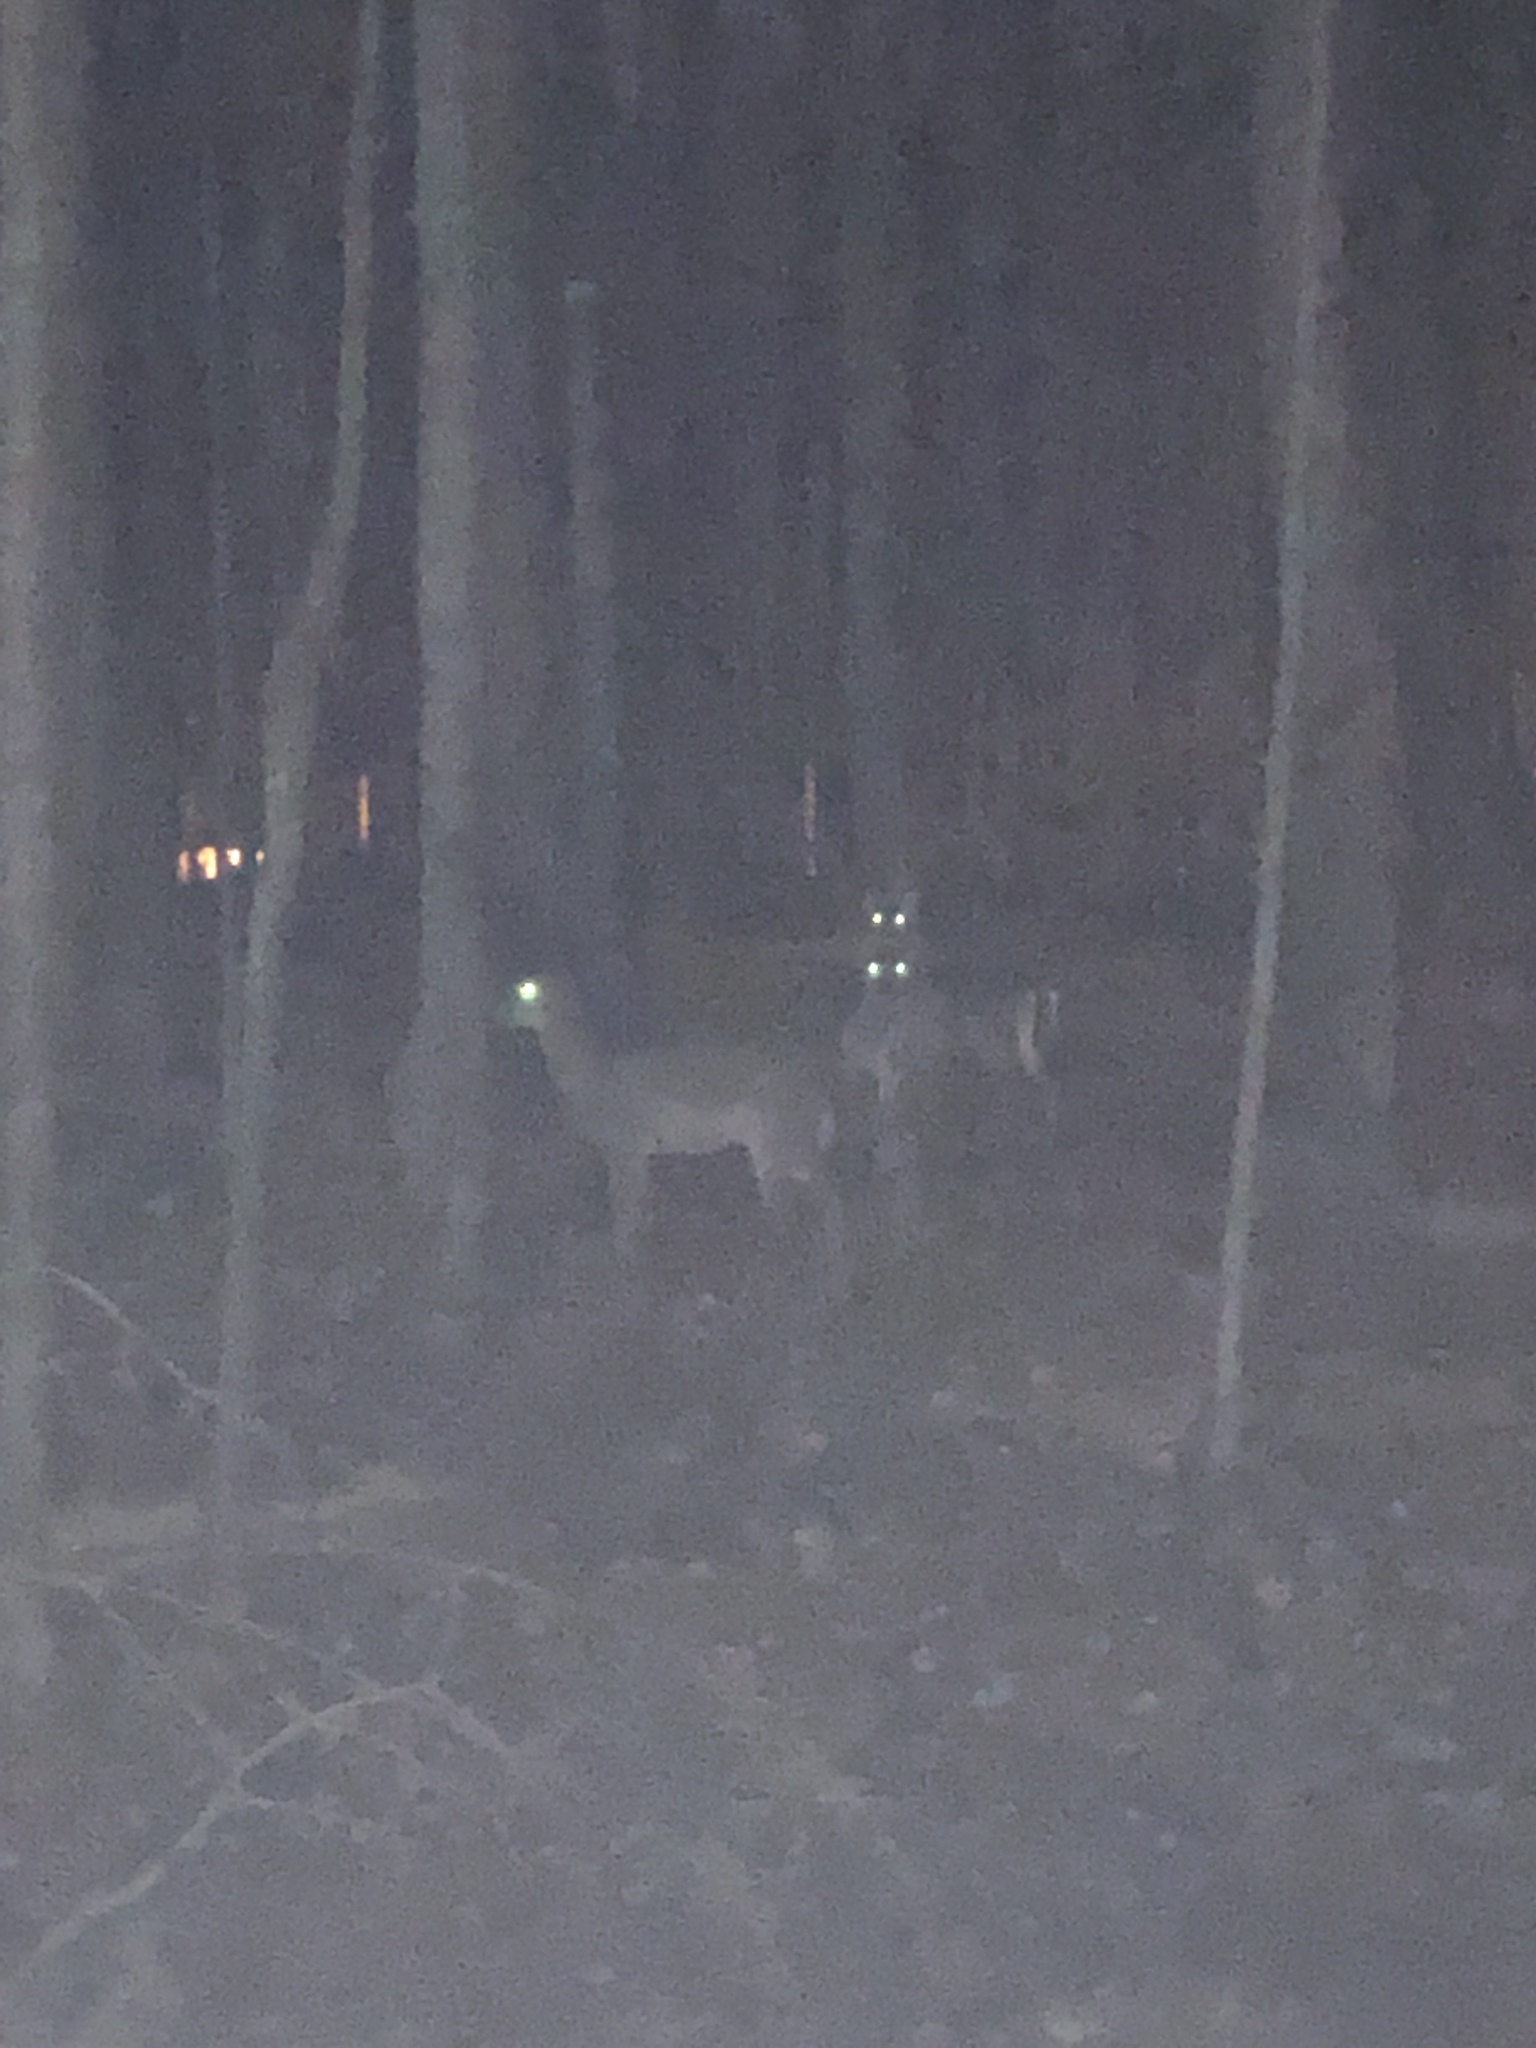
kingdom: Animalia
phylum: Chordata
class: Mammalia
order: Artiodactyla
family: Cervidae
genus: Odocoileus
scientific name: Odocoileus virginianus
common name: White-tailed deer
